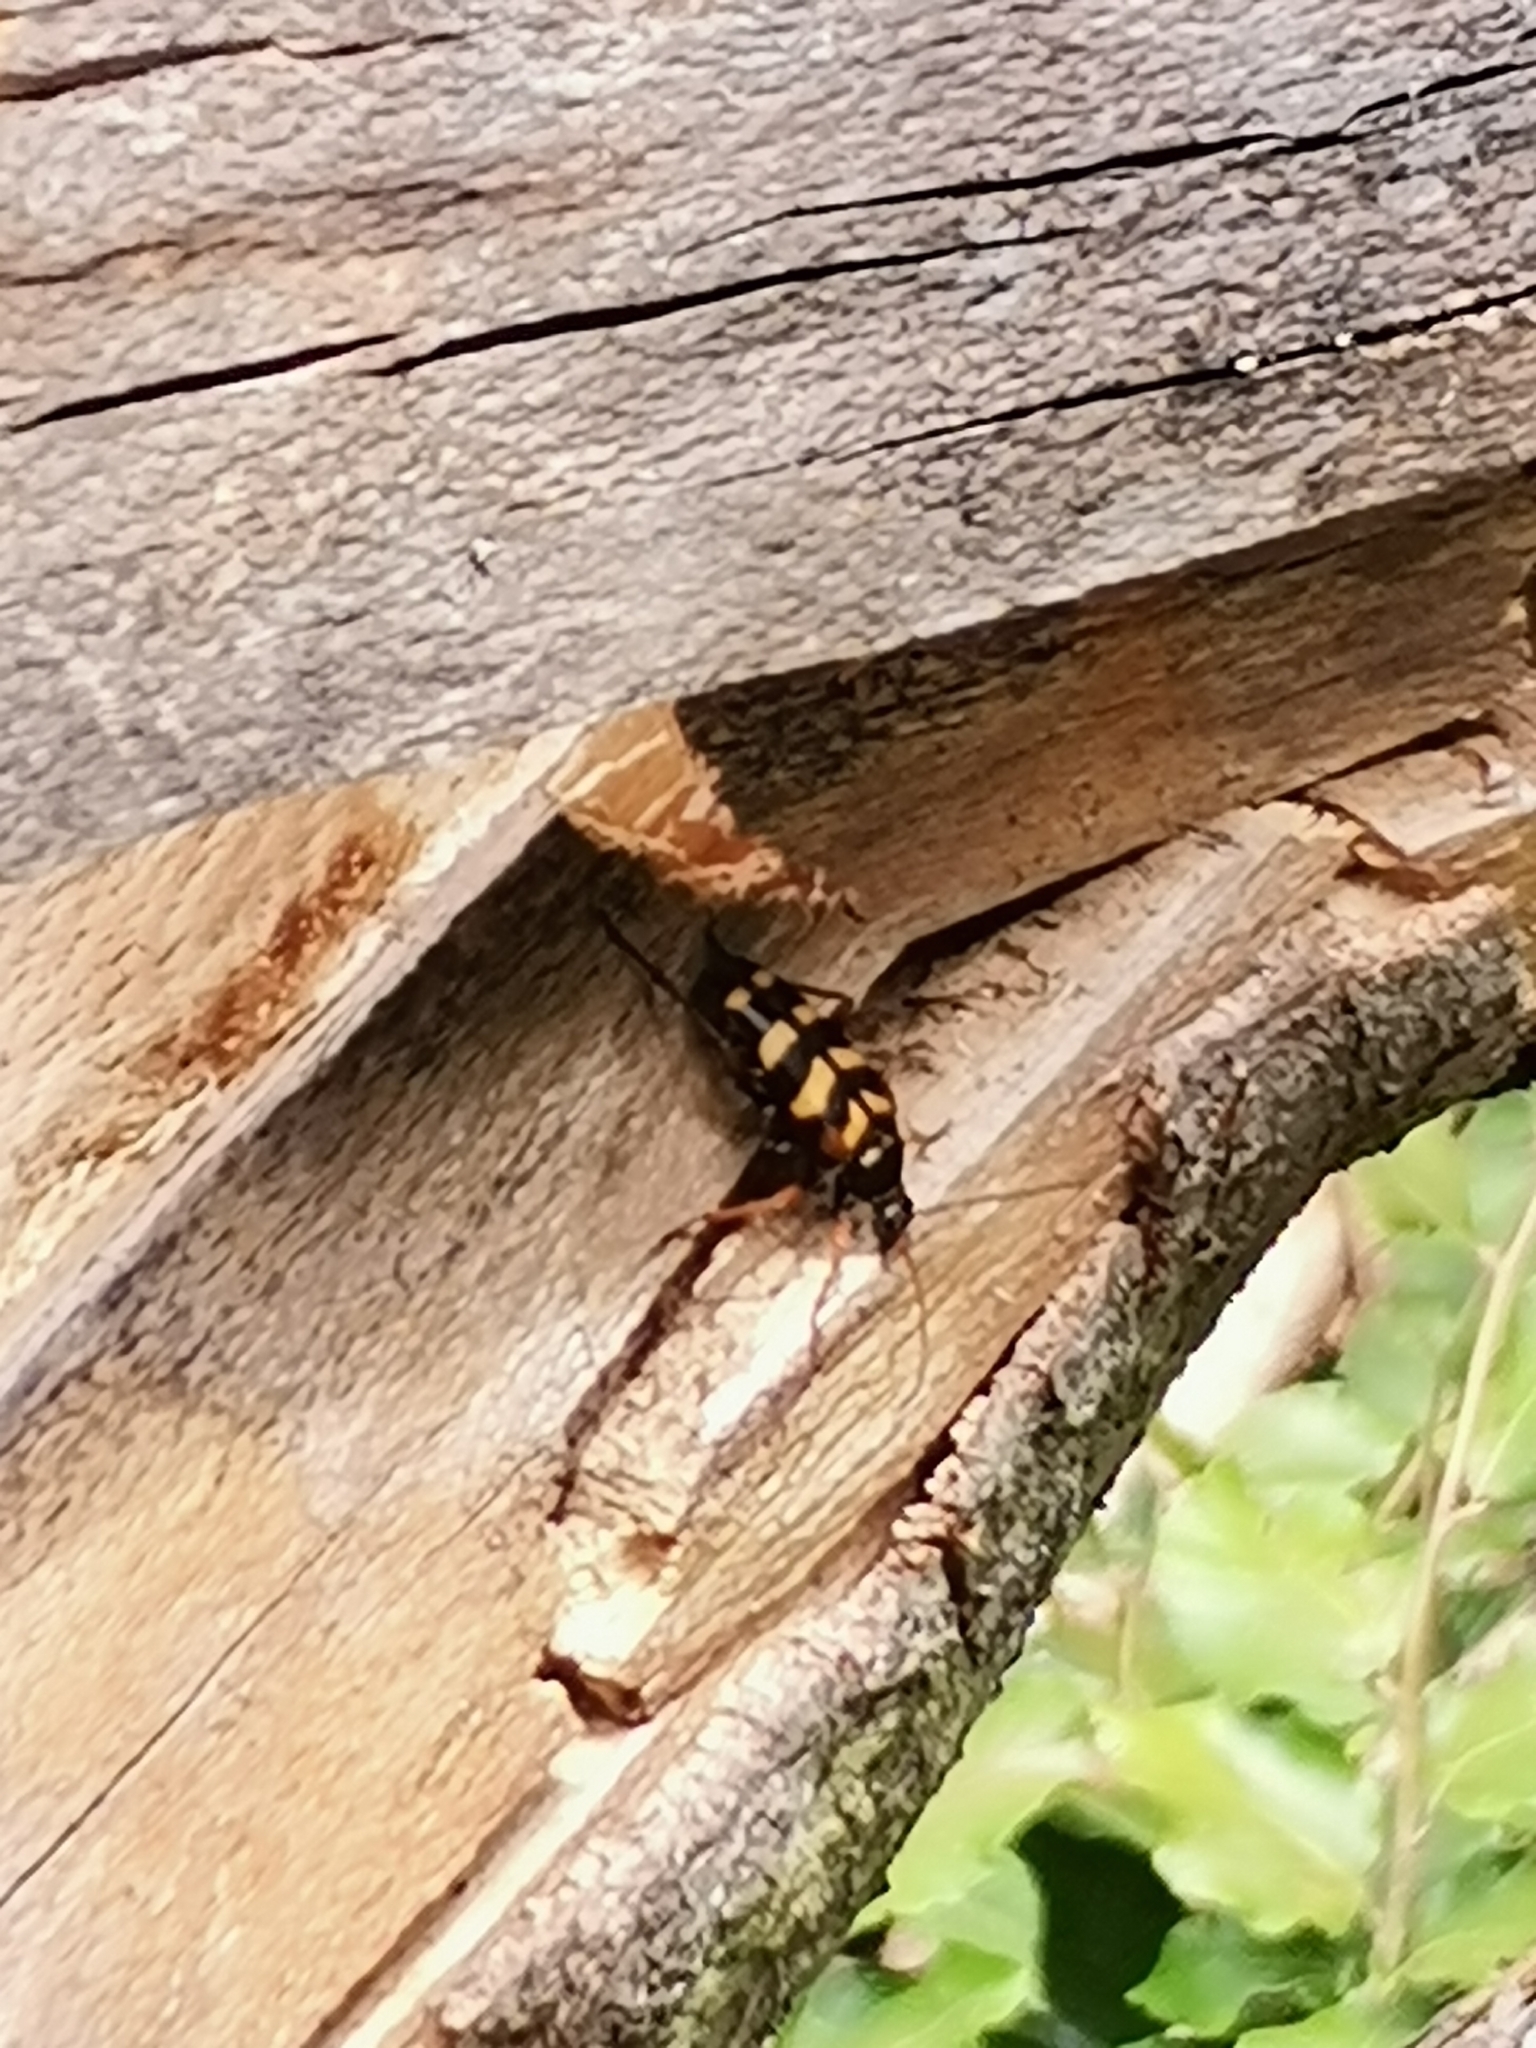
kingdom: Animalia
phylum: Arthropoda
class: Insecta
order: Coleoptera
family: Cerambycidae
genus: Leptura
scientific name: Leptura aurulenta
